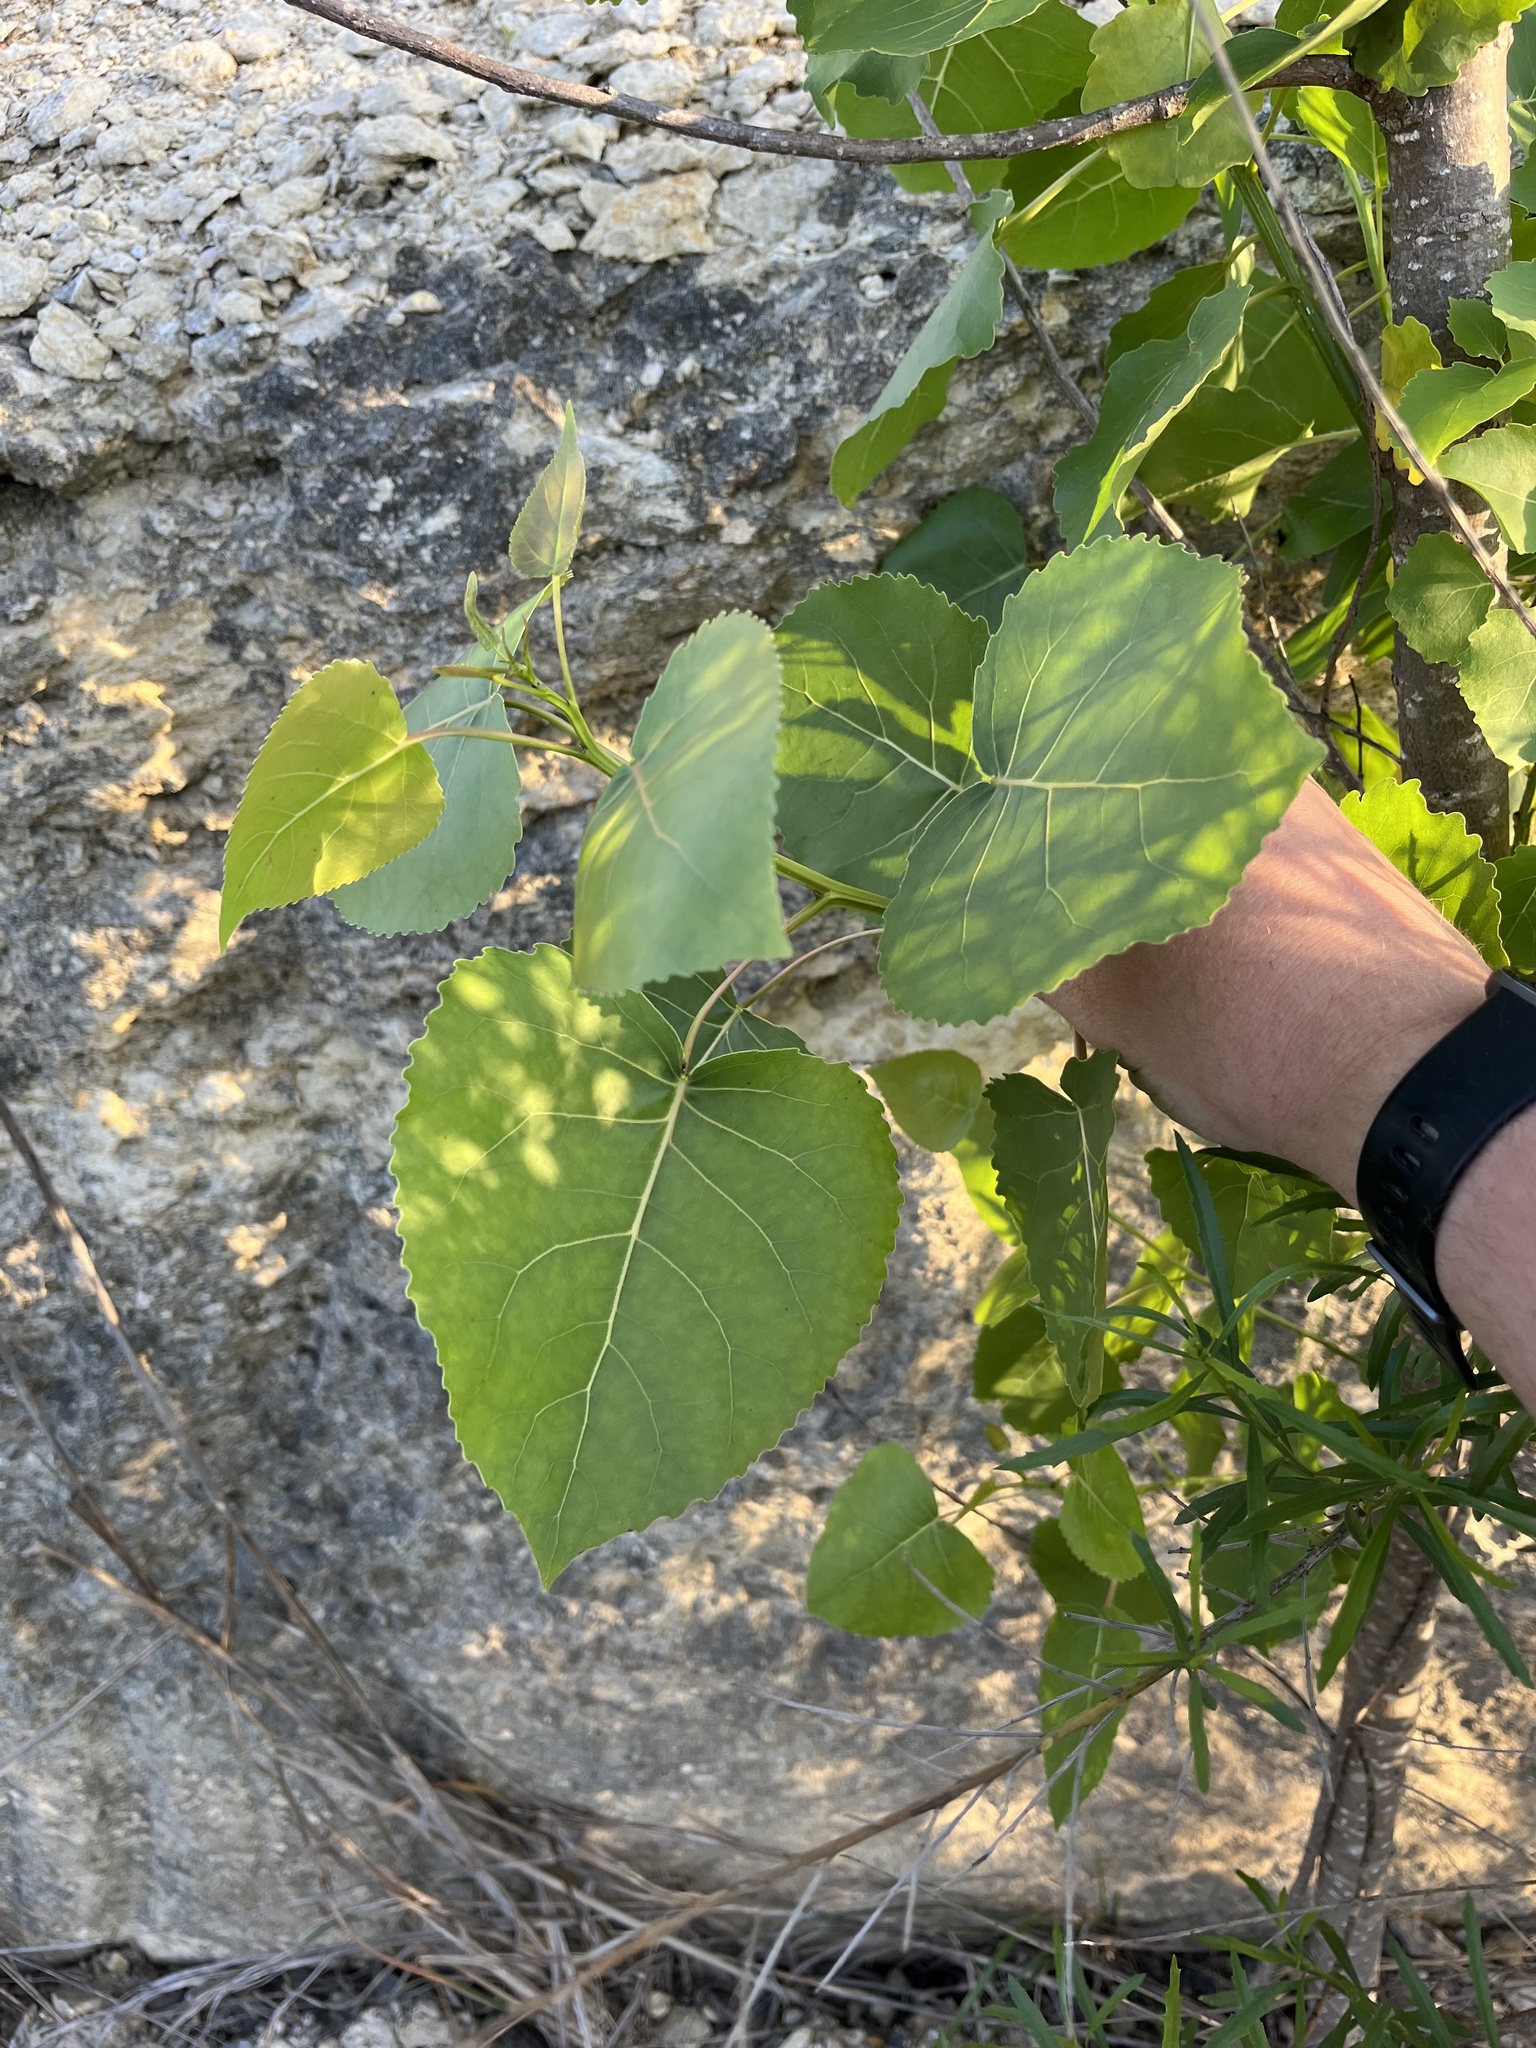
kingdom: Plantae
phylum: Tracheophyta
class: Magnoliopsida
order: Malpighiales
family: Salicaceae
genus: Populus
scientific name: Populus deltoides
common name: Eastern cottonwood
